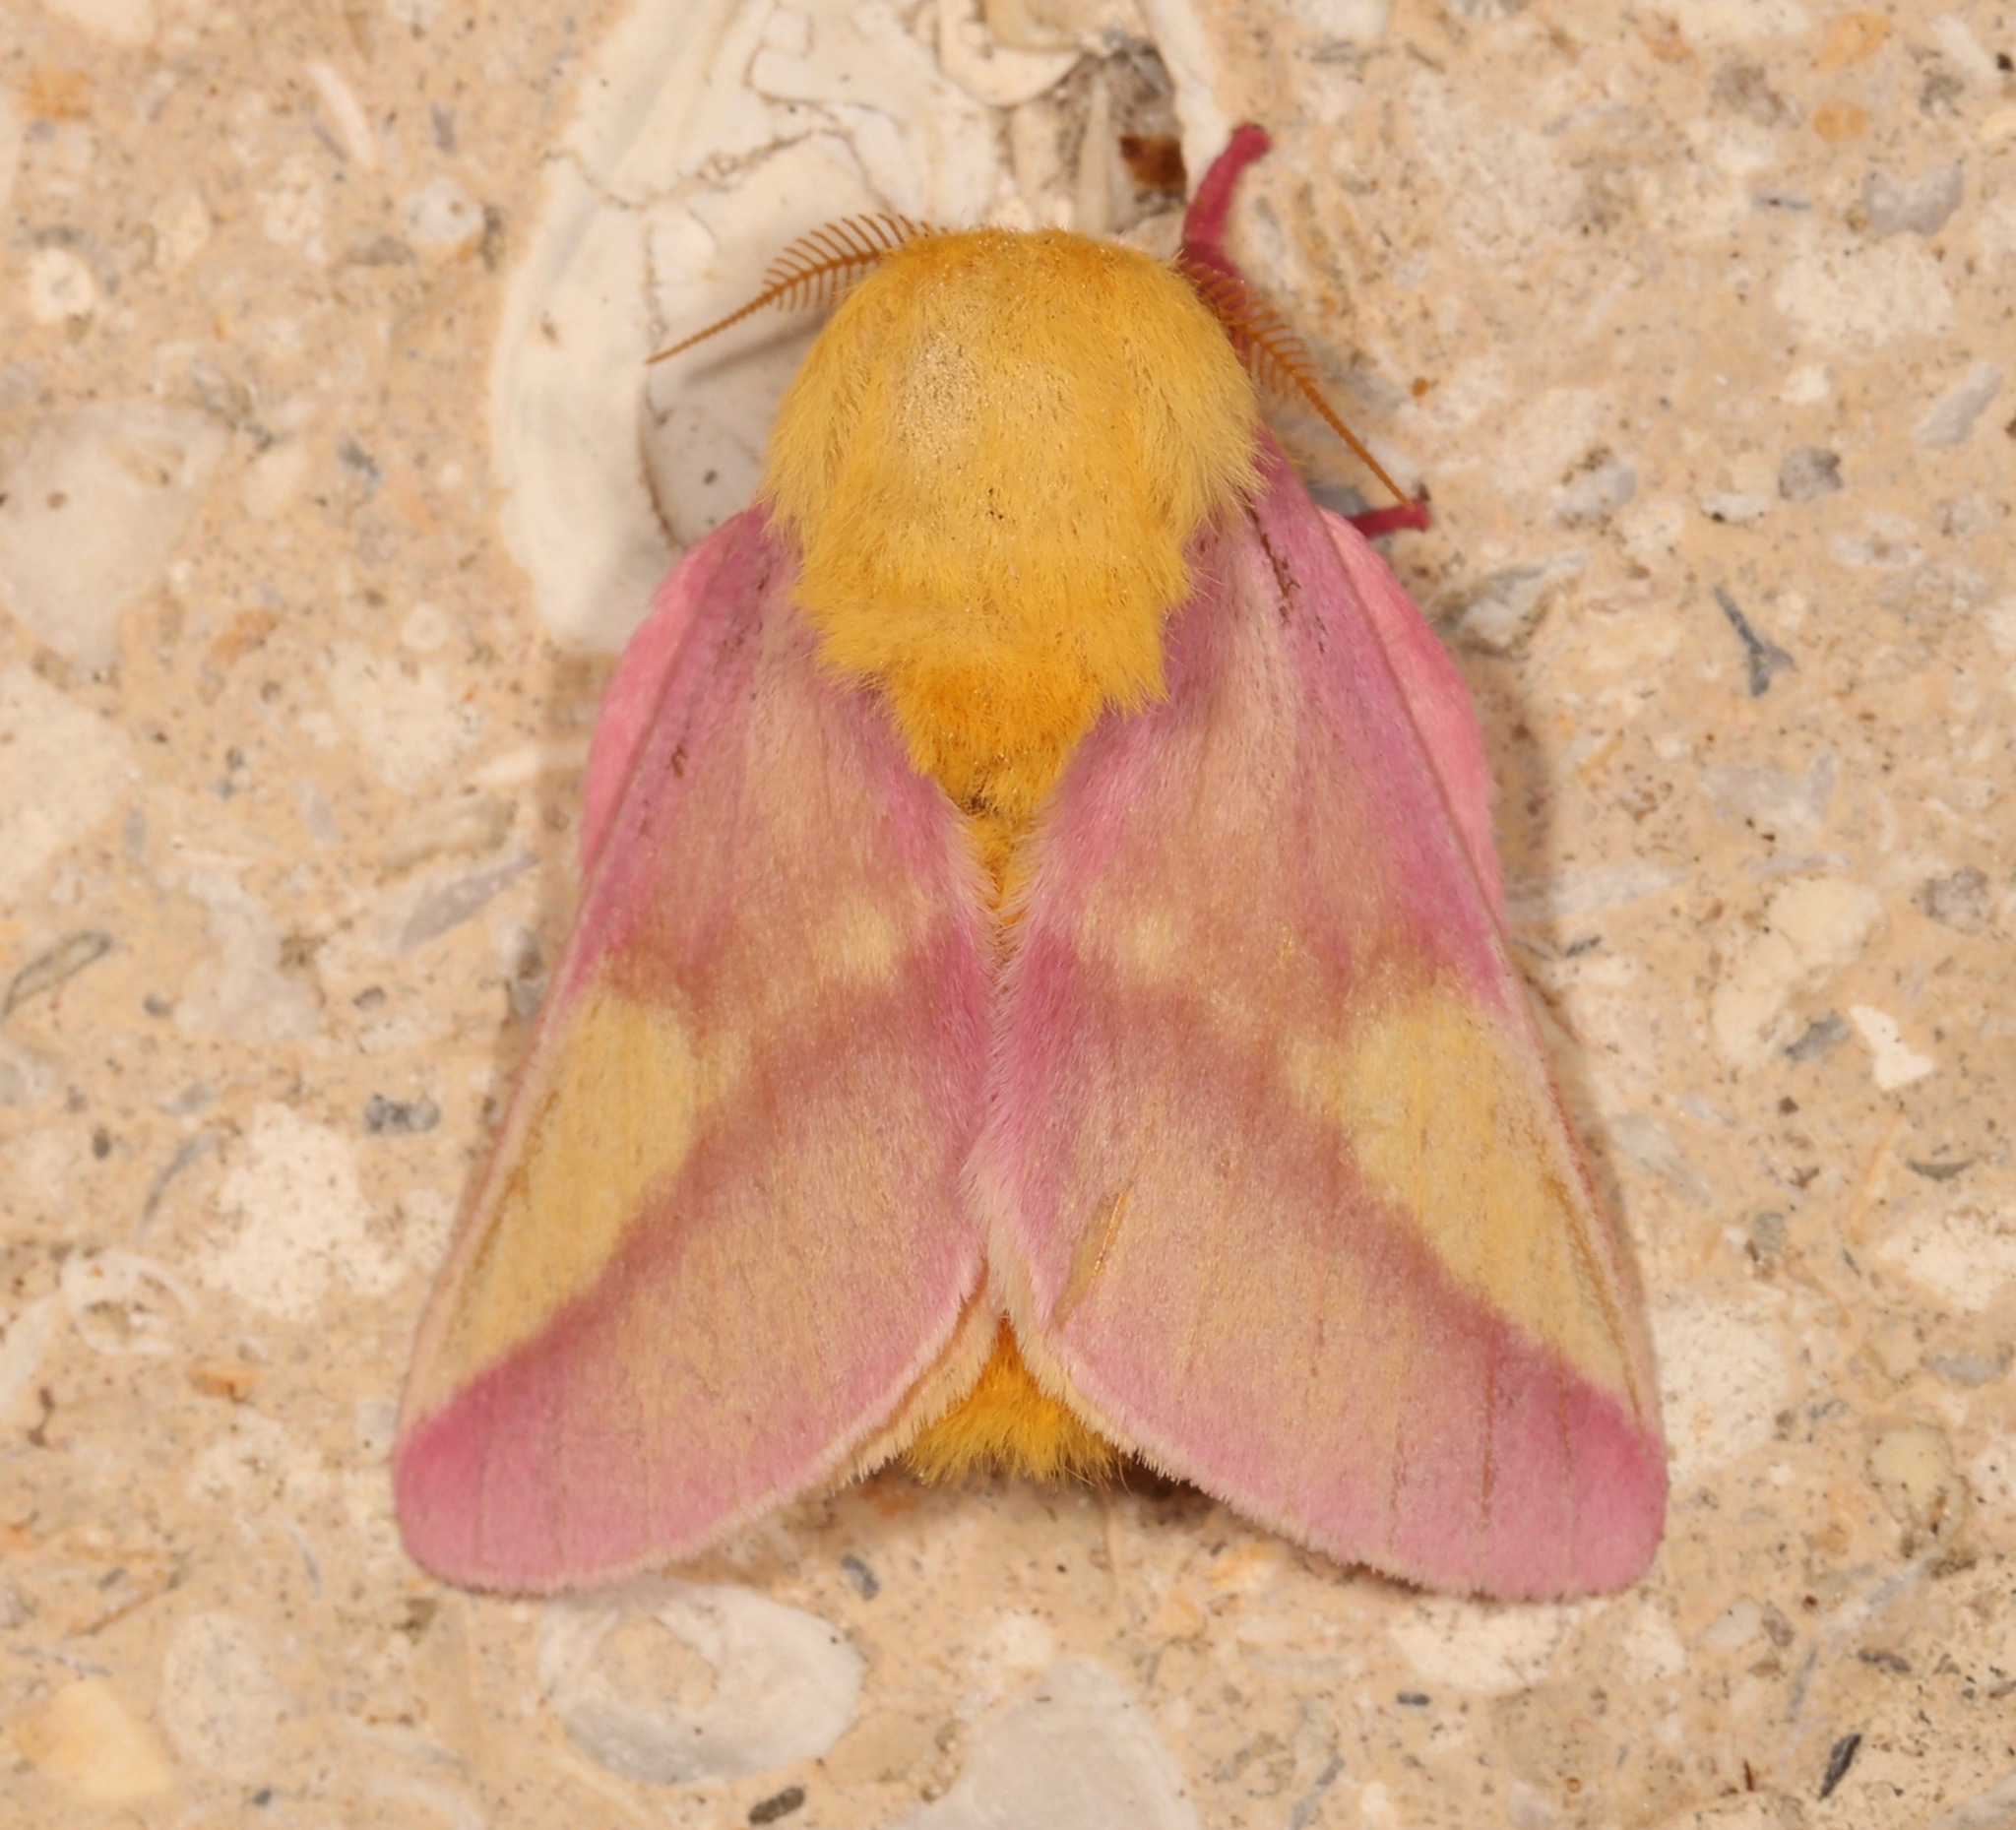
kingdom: Animalia
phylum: Arthropoda
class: Insecta
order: Lepidoptera
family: Saturniidae
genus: Dryocampa
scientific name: Dryocampa rubicunda
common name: Rosy maple moth
